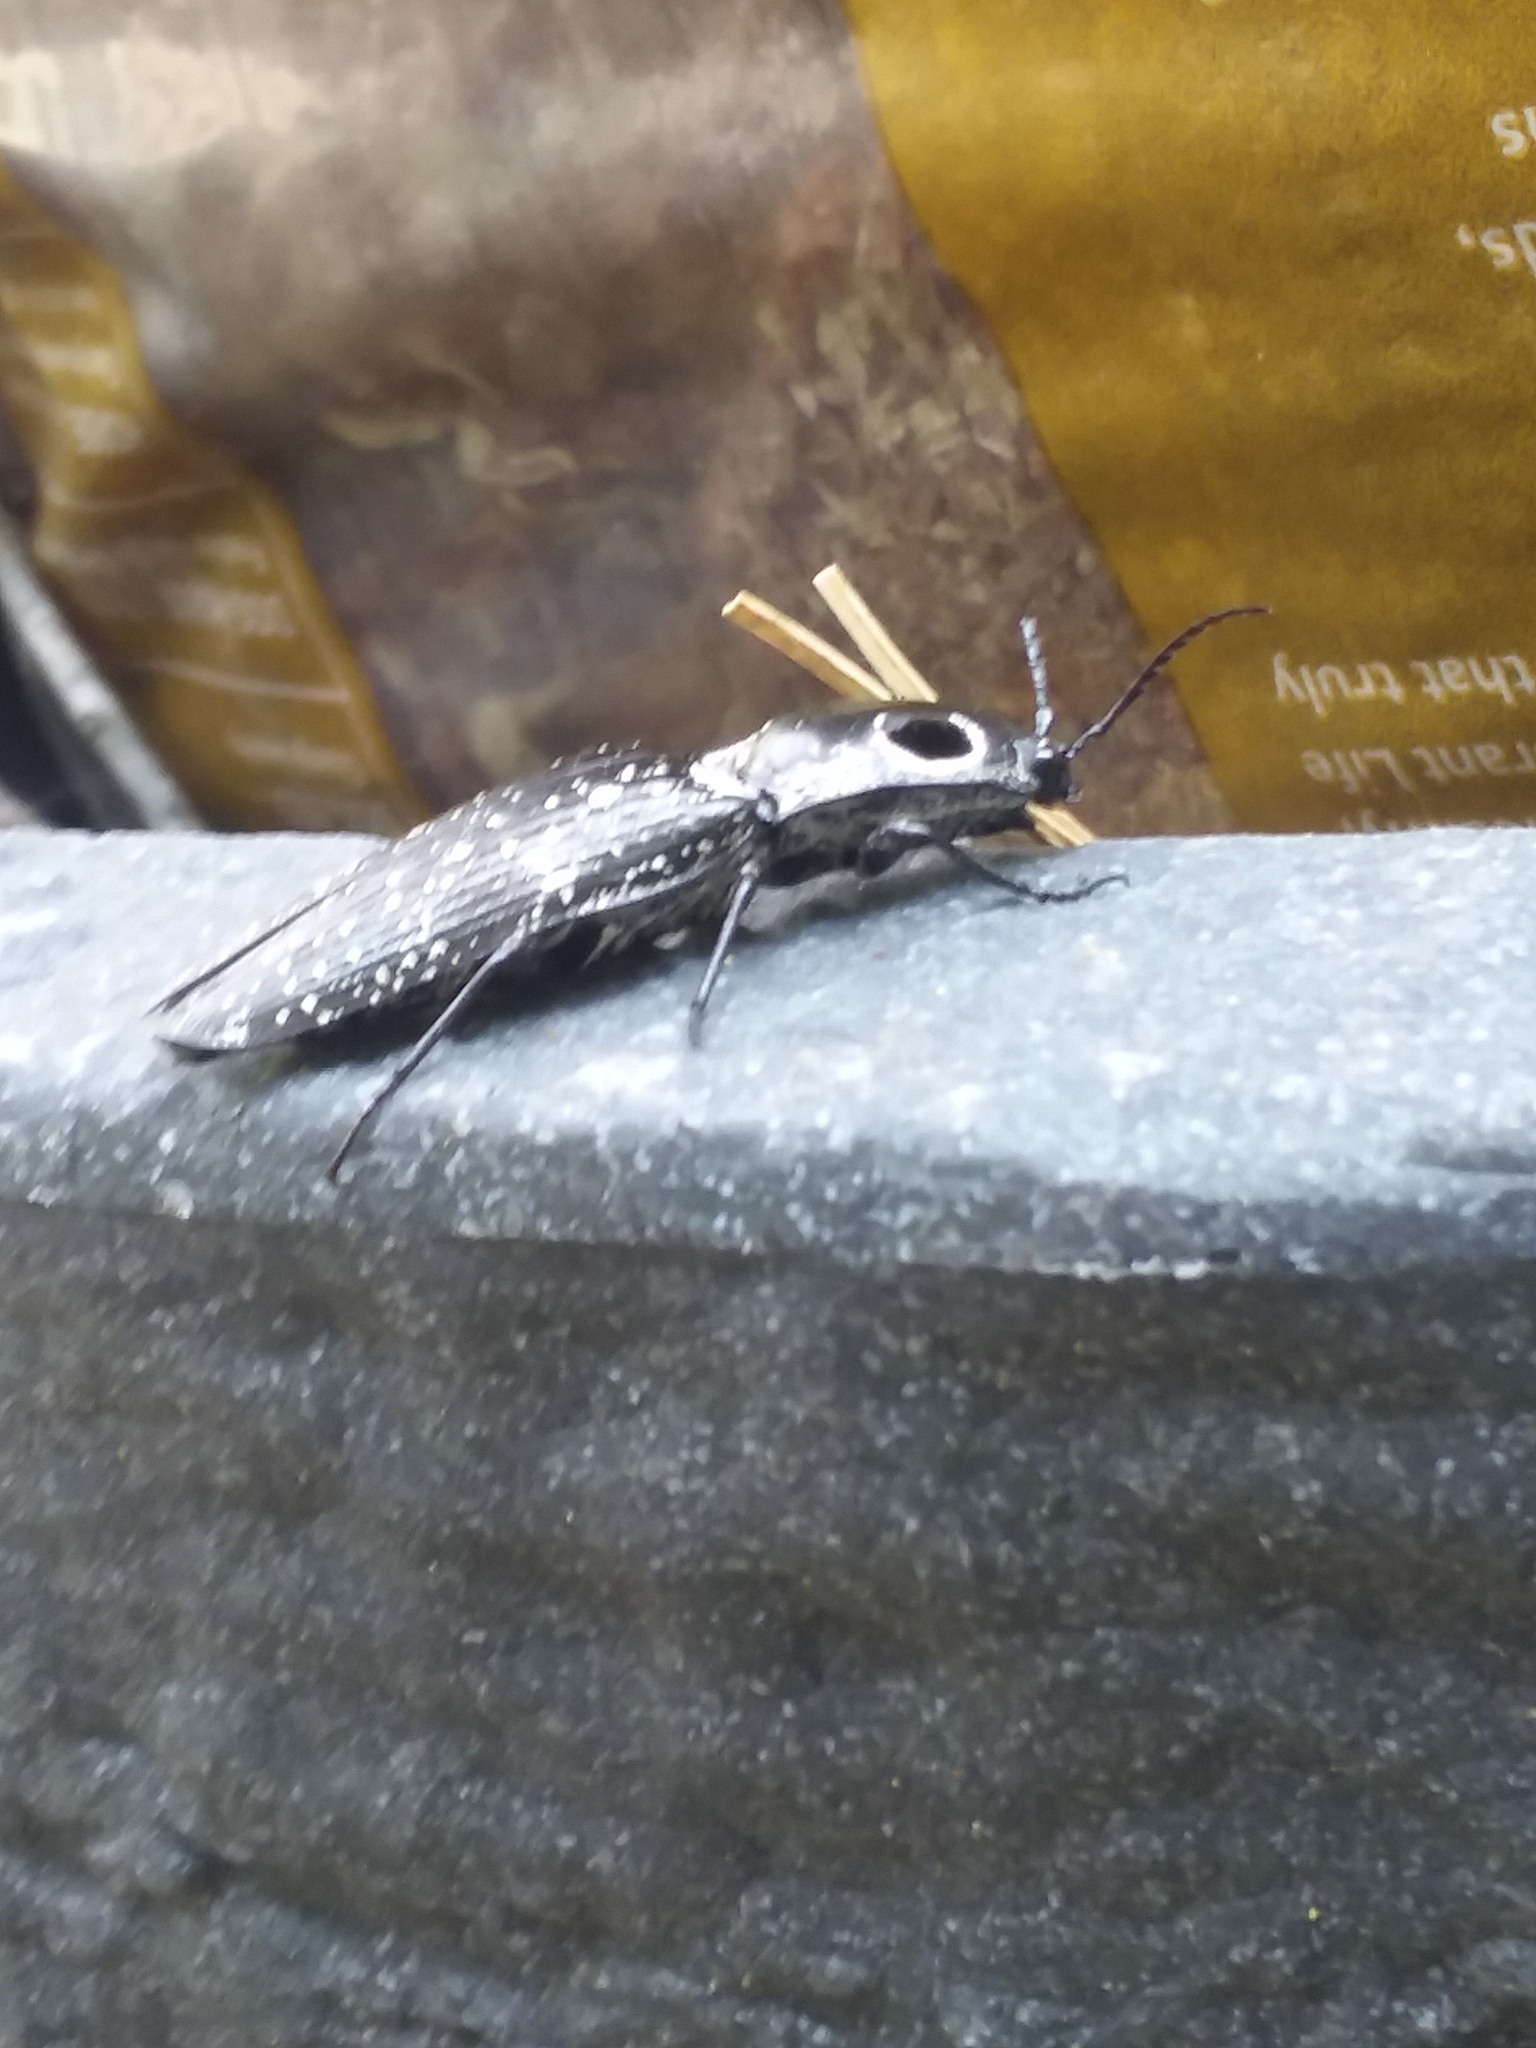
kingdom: Animalia
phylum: Arthropoda
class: Insecta
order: Coleoptera
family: Elateridae
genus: Alaus
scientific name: Alaus oculatus
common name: Eastern eyed click beetle
